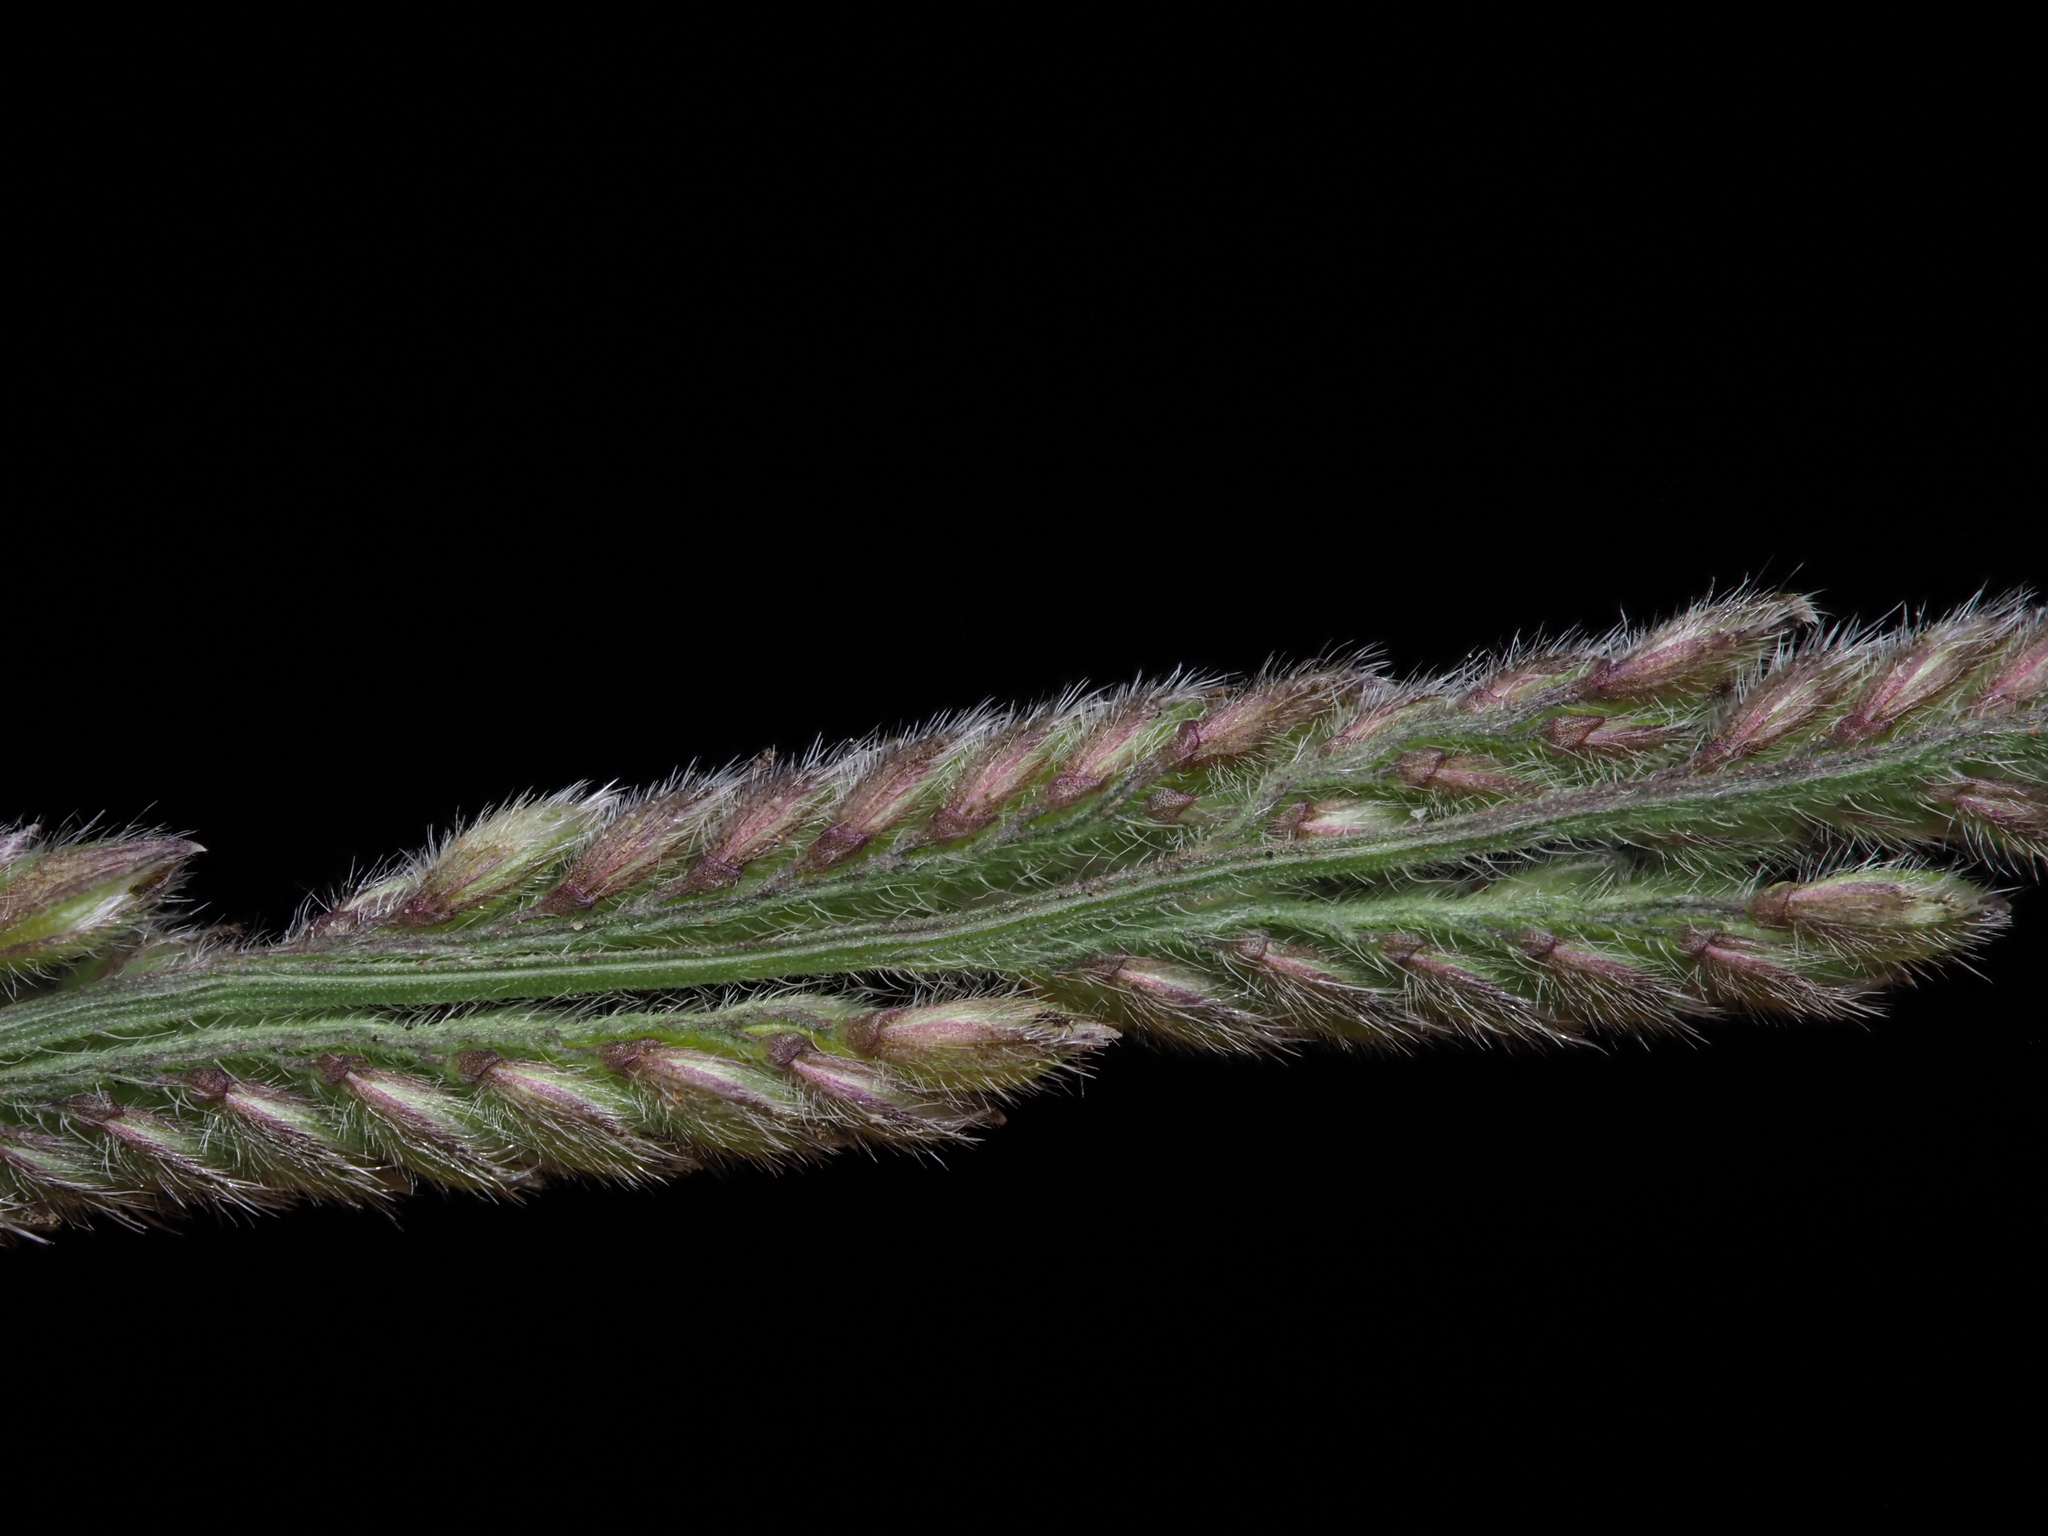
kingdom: Plantae
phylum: Tracheophyta
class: Liliopsida
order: Poales
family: Poaceae
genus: Moorochloa
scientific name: Moorochloa eruciformis
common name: Sweet signalgrass
